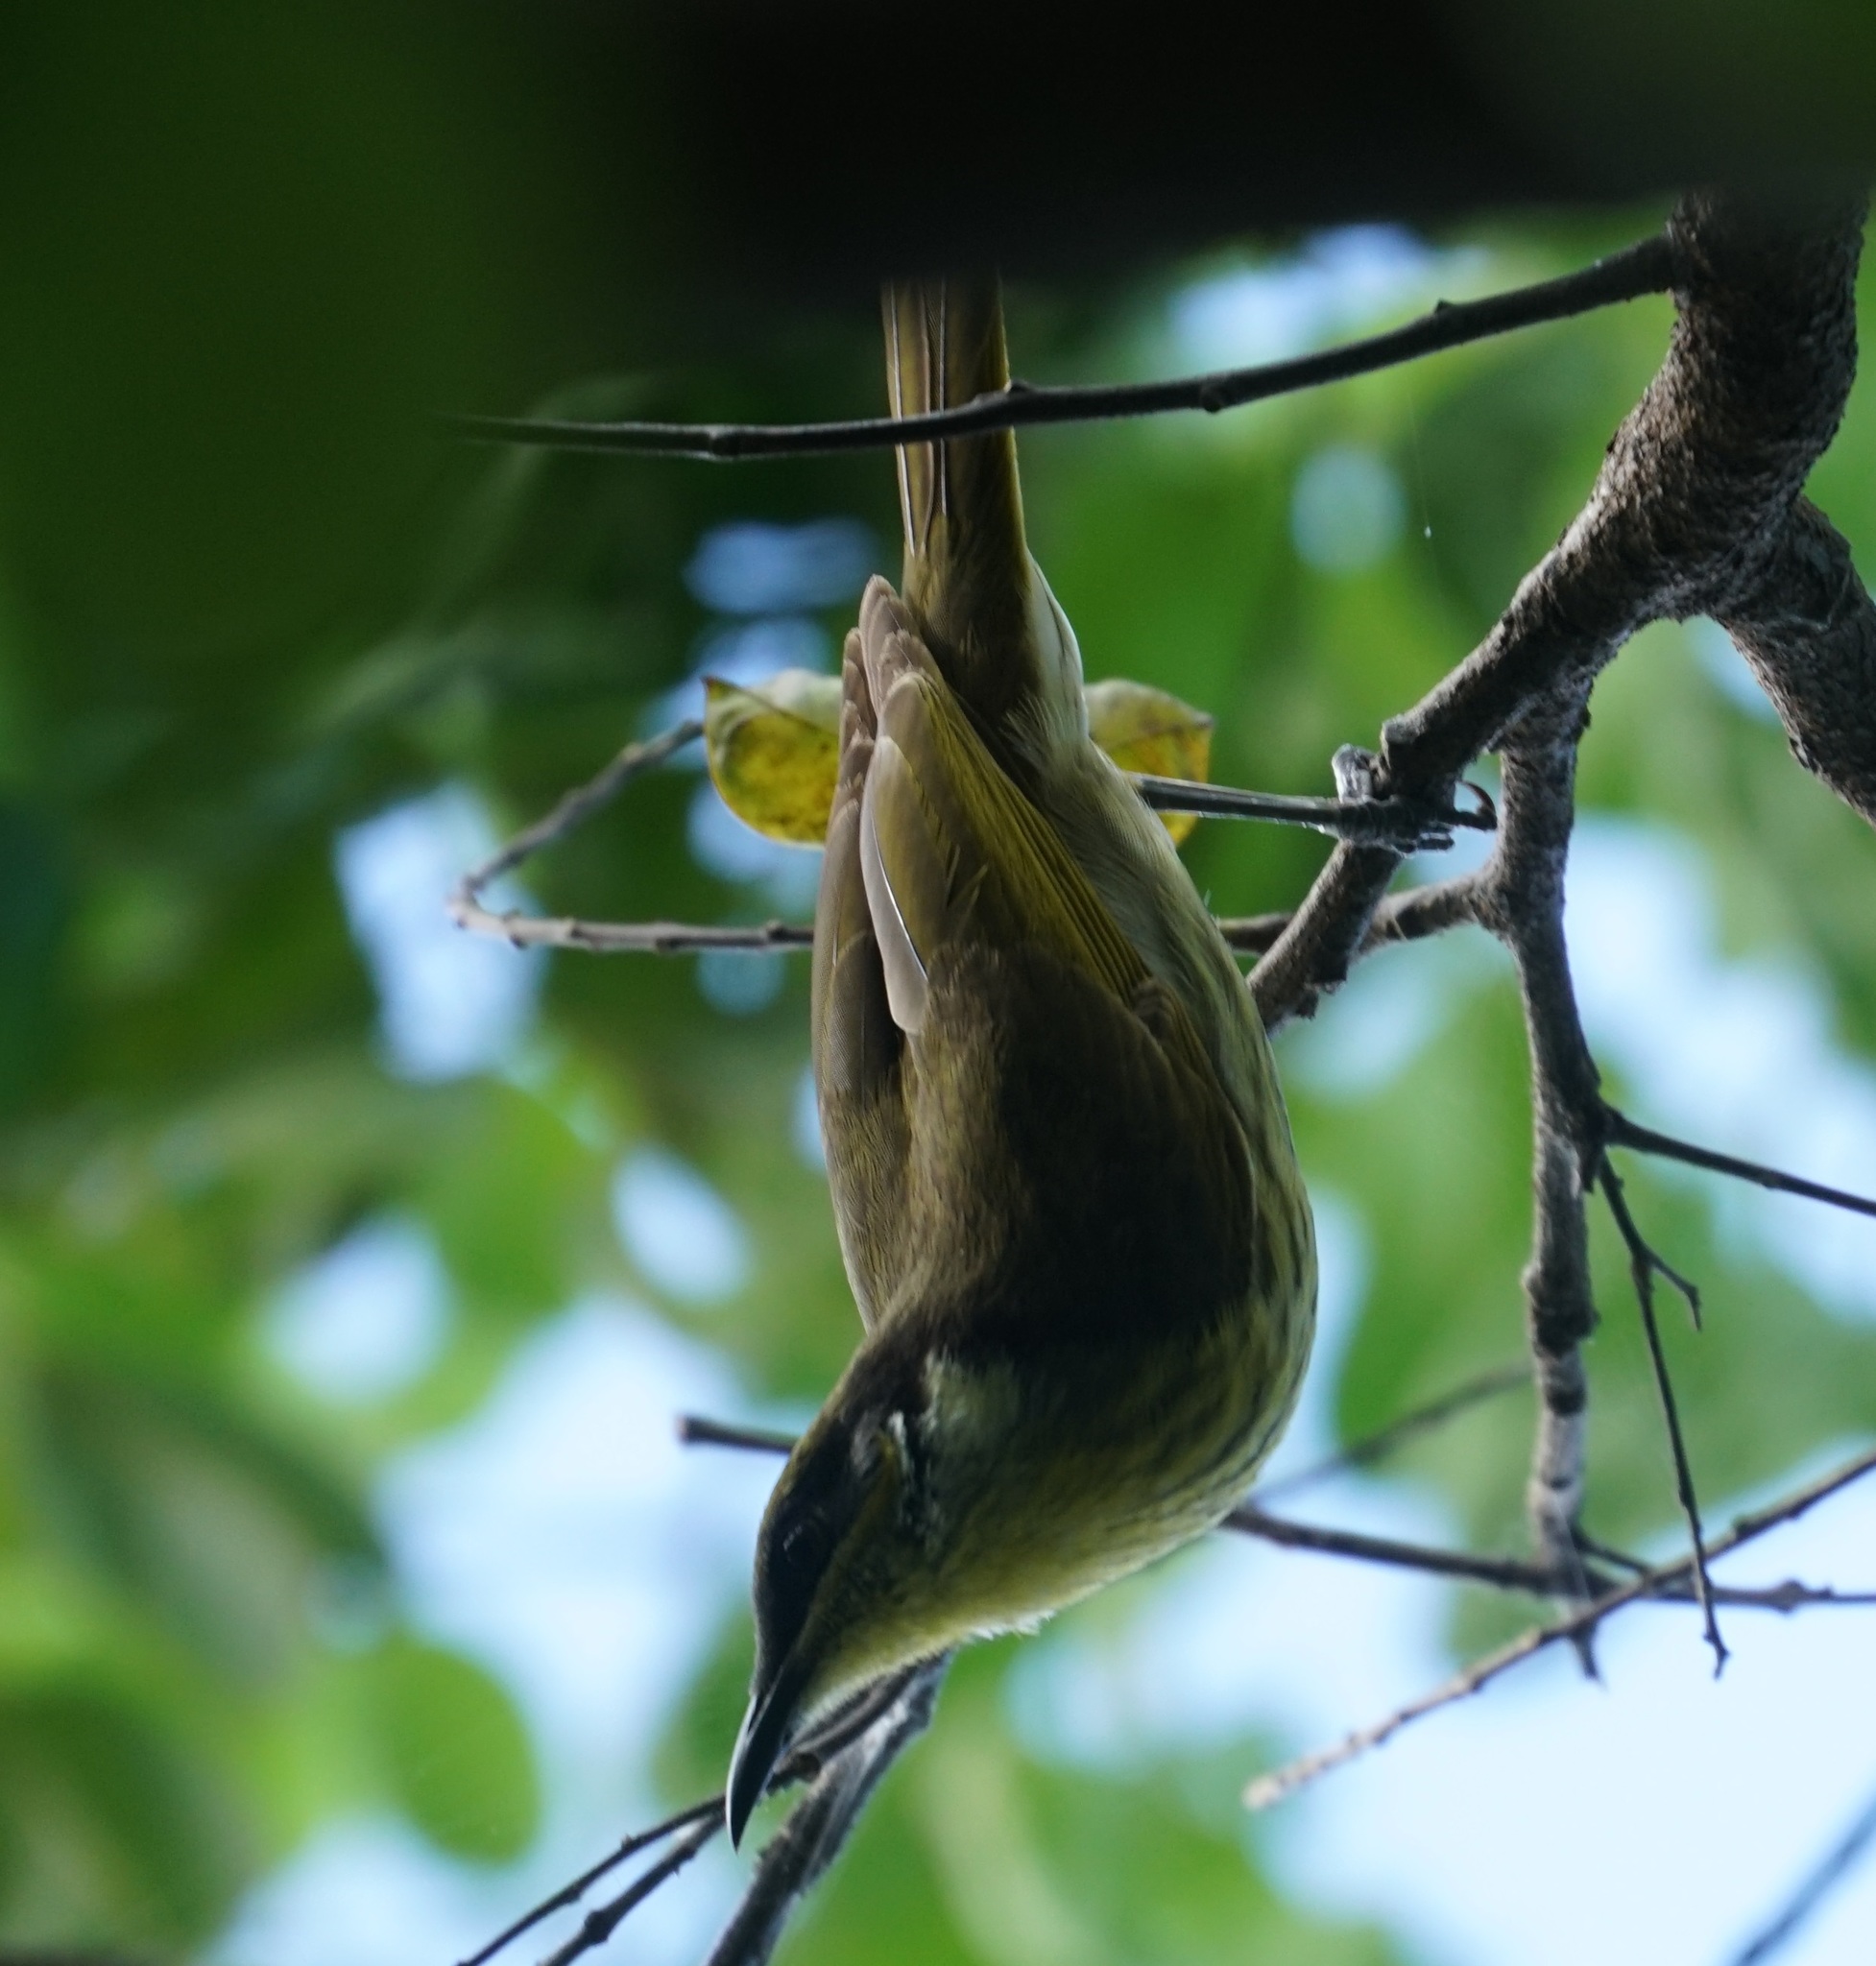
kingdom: Animalia
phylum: Chordata
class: Aves
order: Passeriformes
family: Meliphagidae
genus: Gavicalis
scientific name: Gavicalis versicolor
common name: Varied honeyeater
